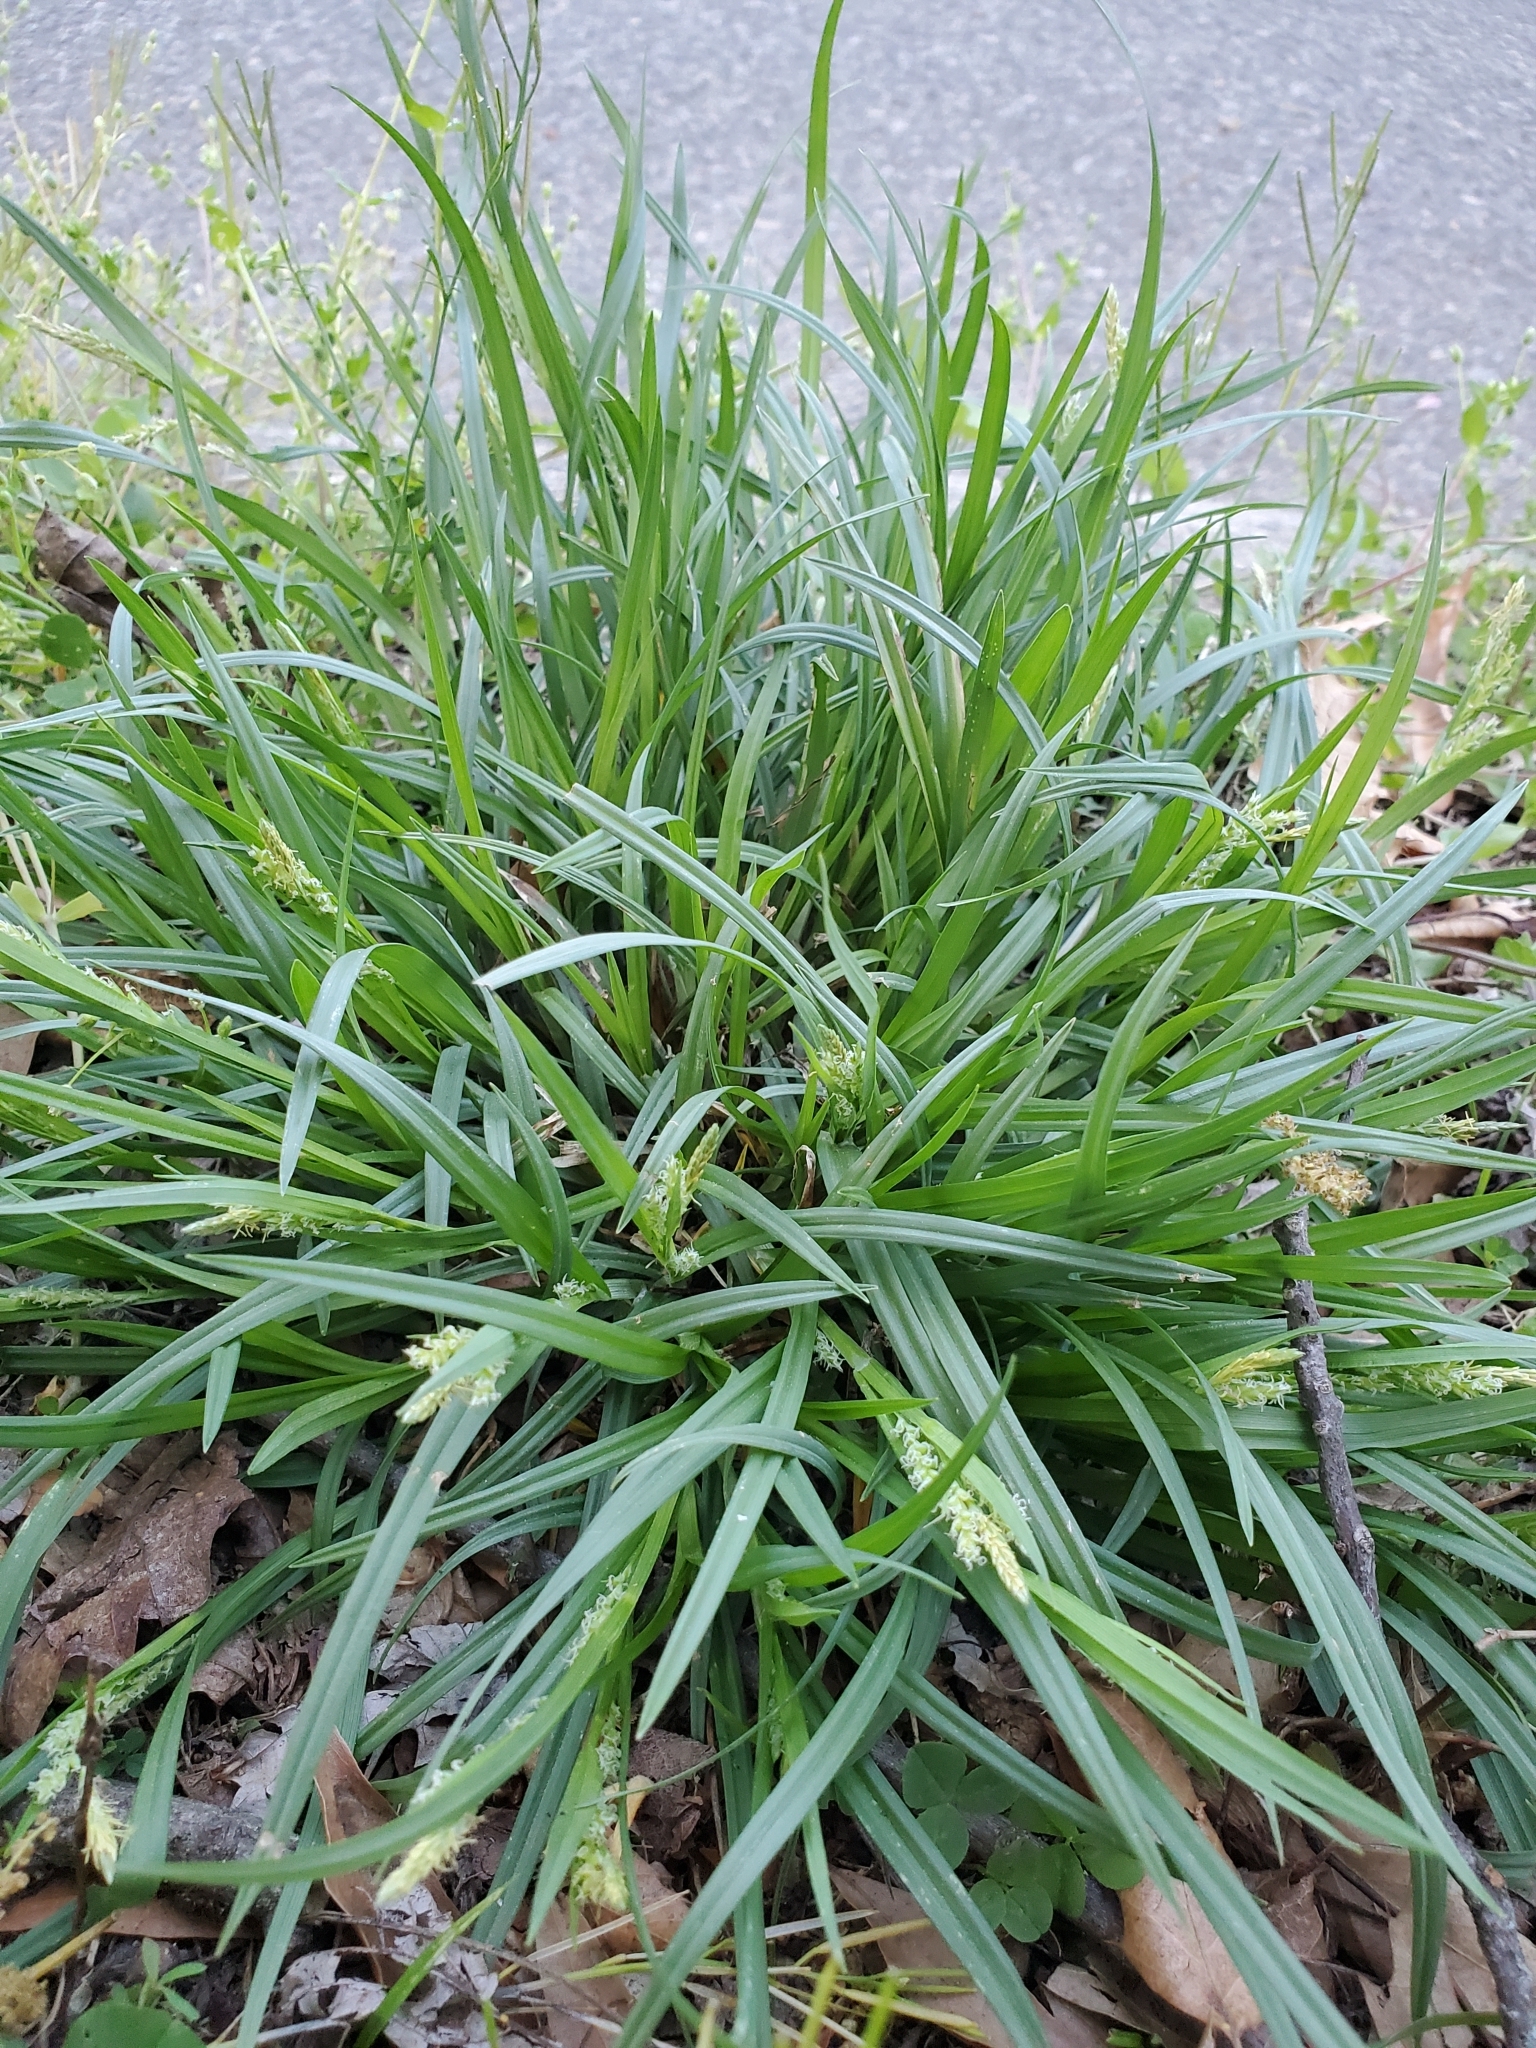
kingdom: Plantae
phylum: Tracheophyta
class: Liliopsida
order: Poales
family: Cyperaceae
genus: Carex
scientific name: Carex blanda
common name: Bland sedge
